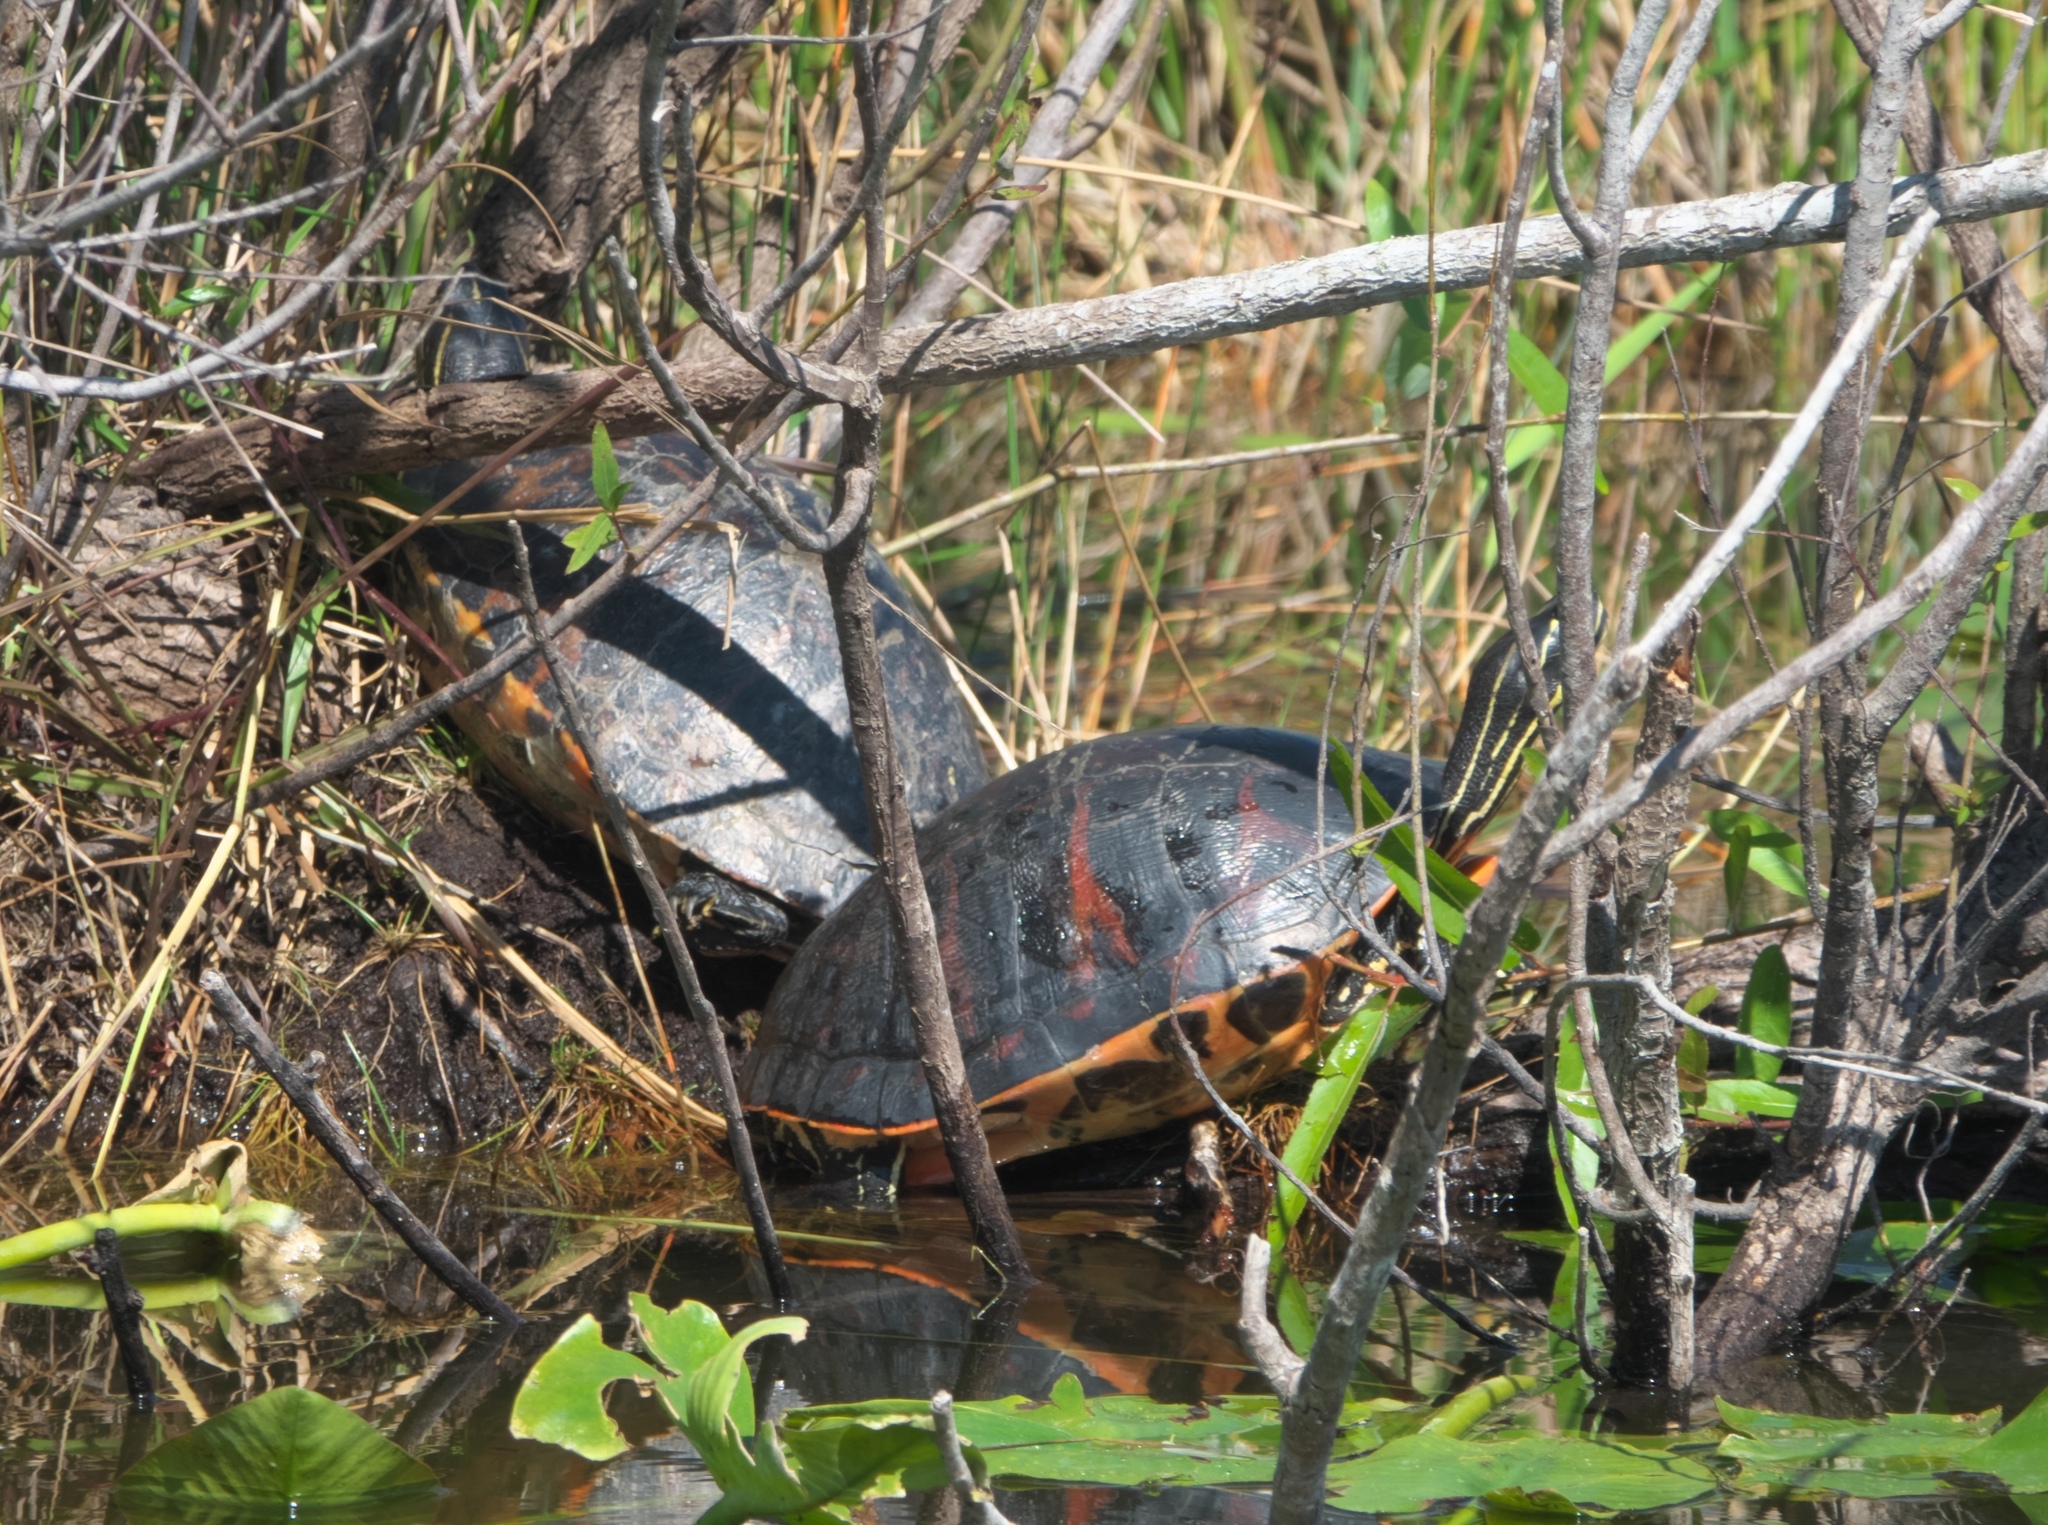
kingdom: Animalia
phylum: Chordata
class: Testudines
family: Emydidae
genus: Pseudemys
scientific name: Pseudemys nelsoni
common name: Florida red-bellied turtle
